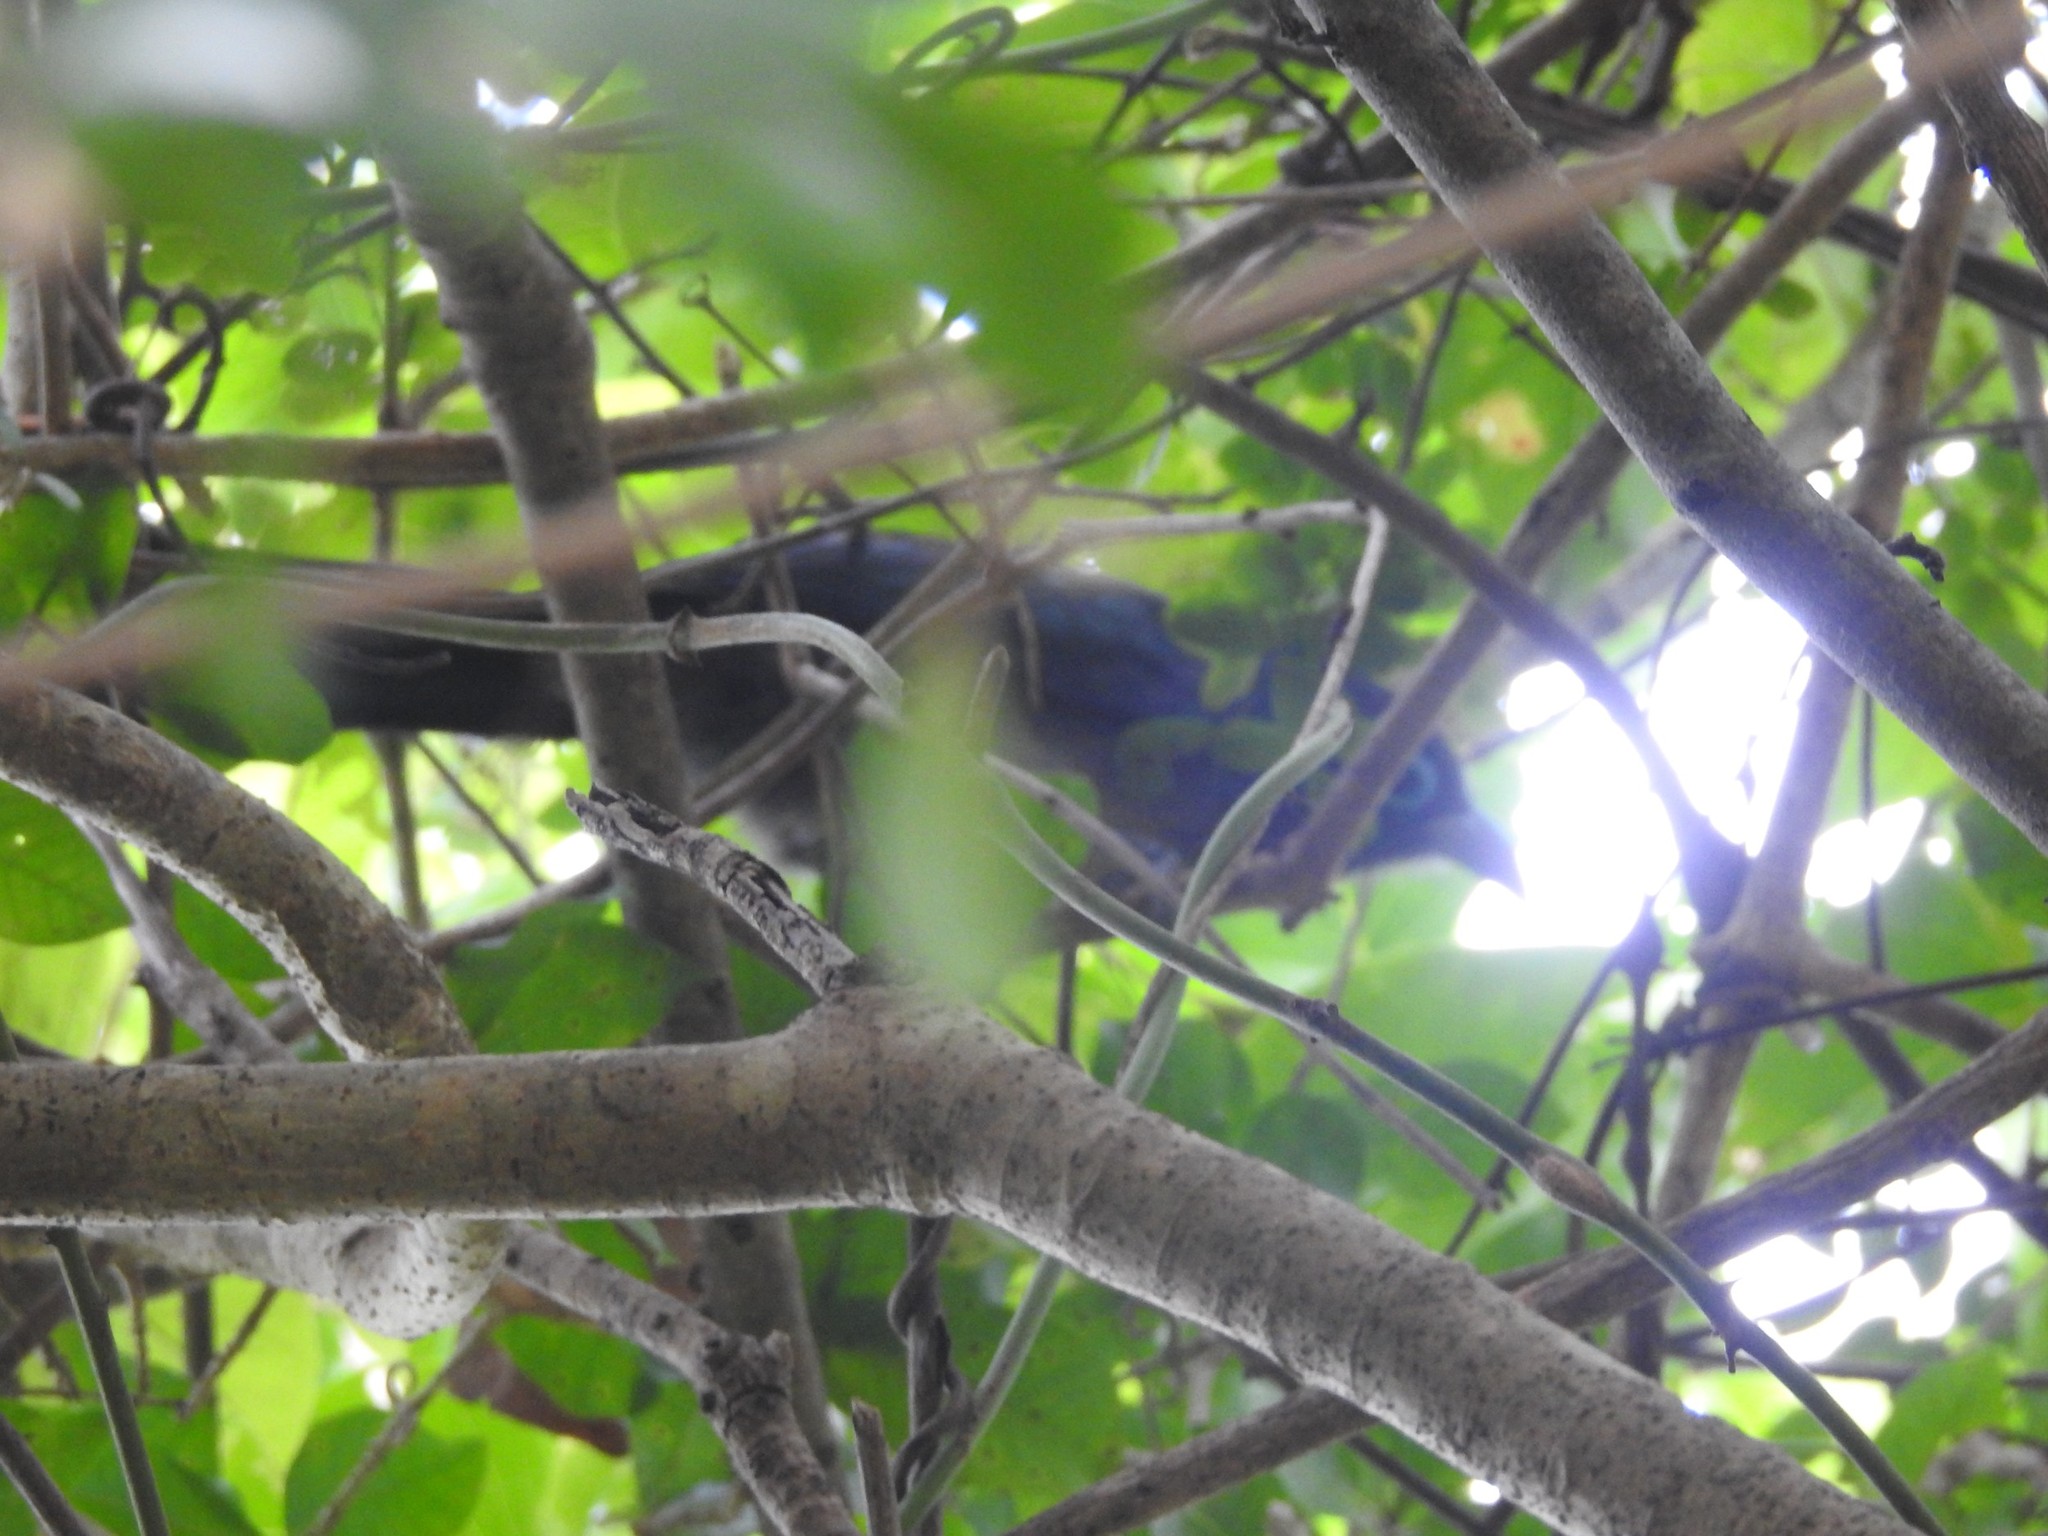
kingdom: Animalia
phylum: Chordata
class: Aves
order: Cuculiformes
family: Cuculidae
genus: Rhopodytes
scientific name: Rhopodytes viridirostris
